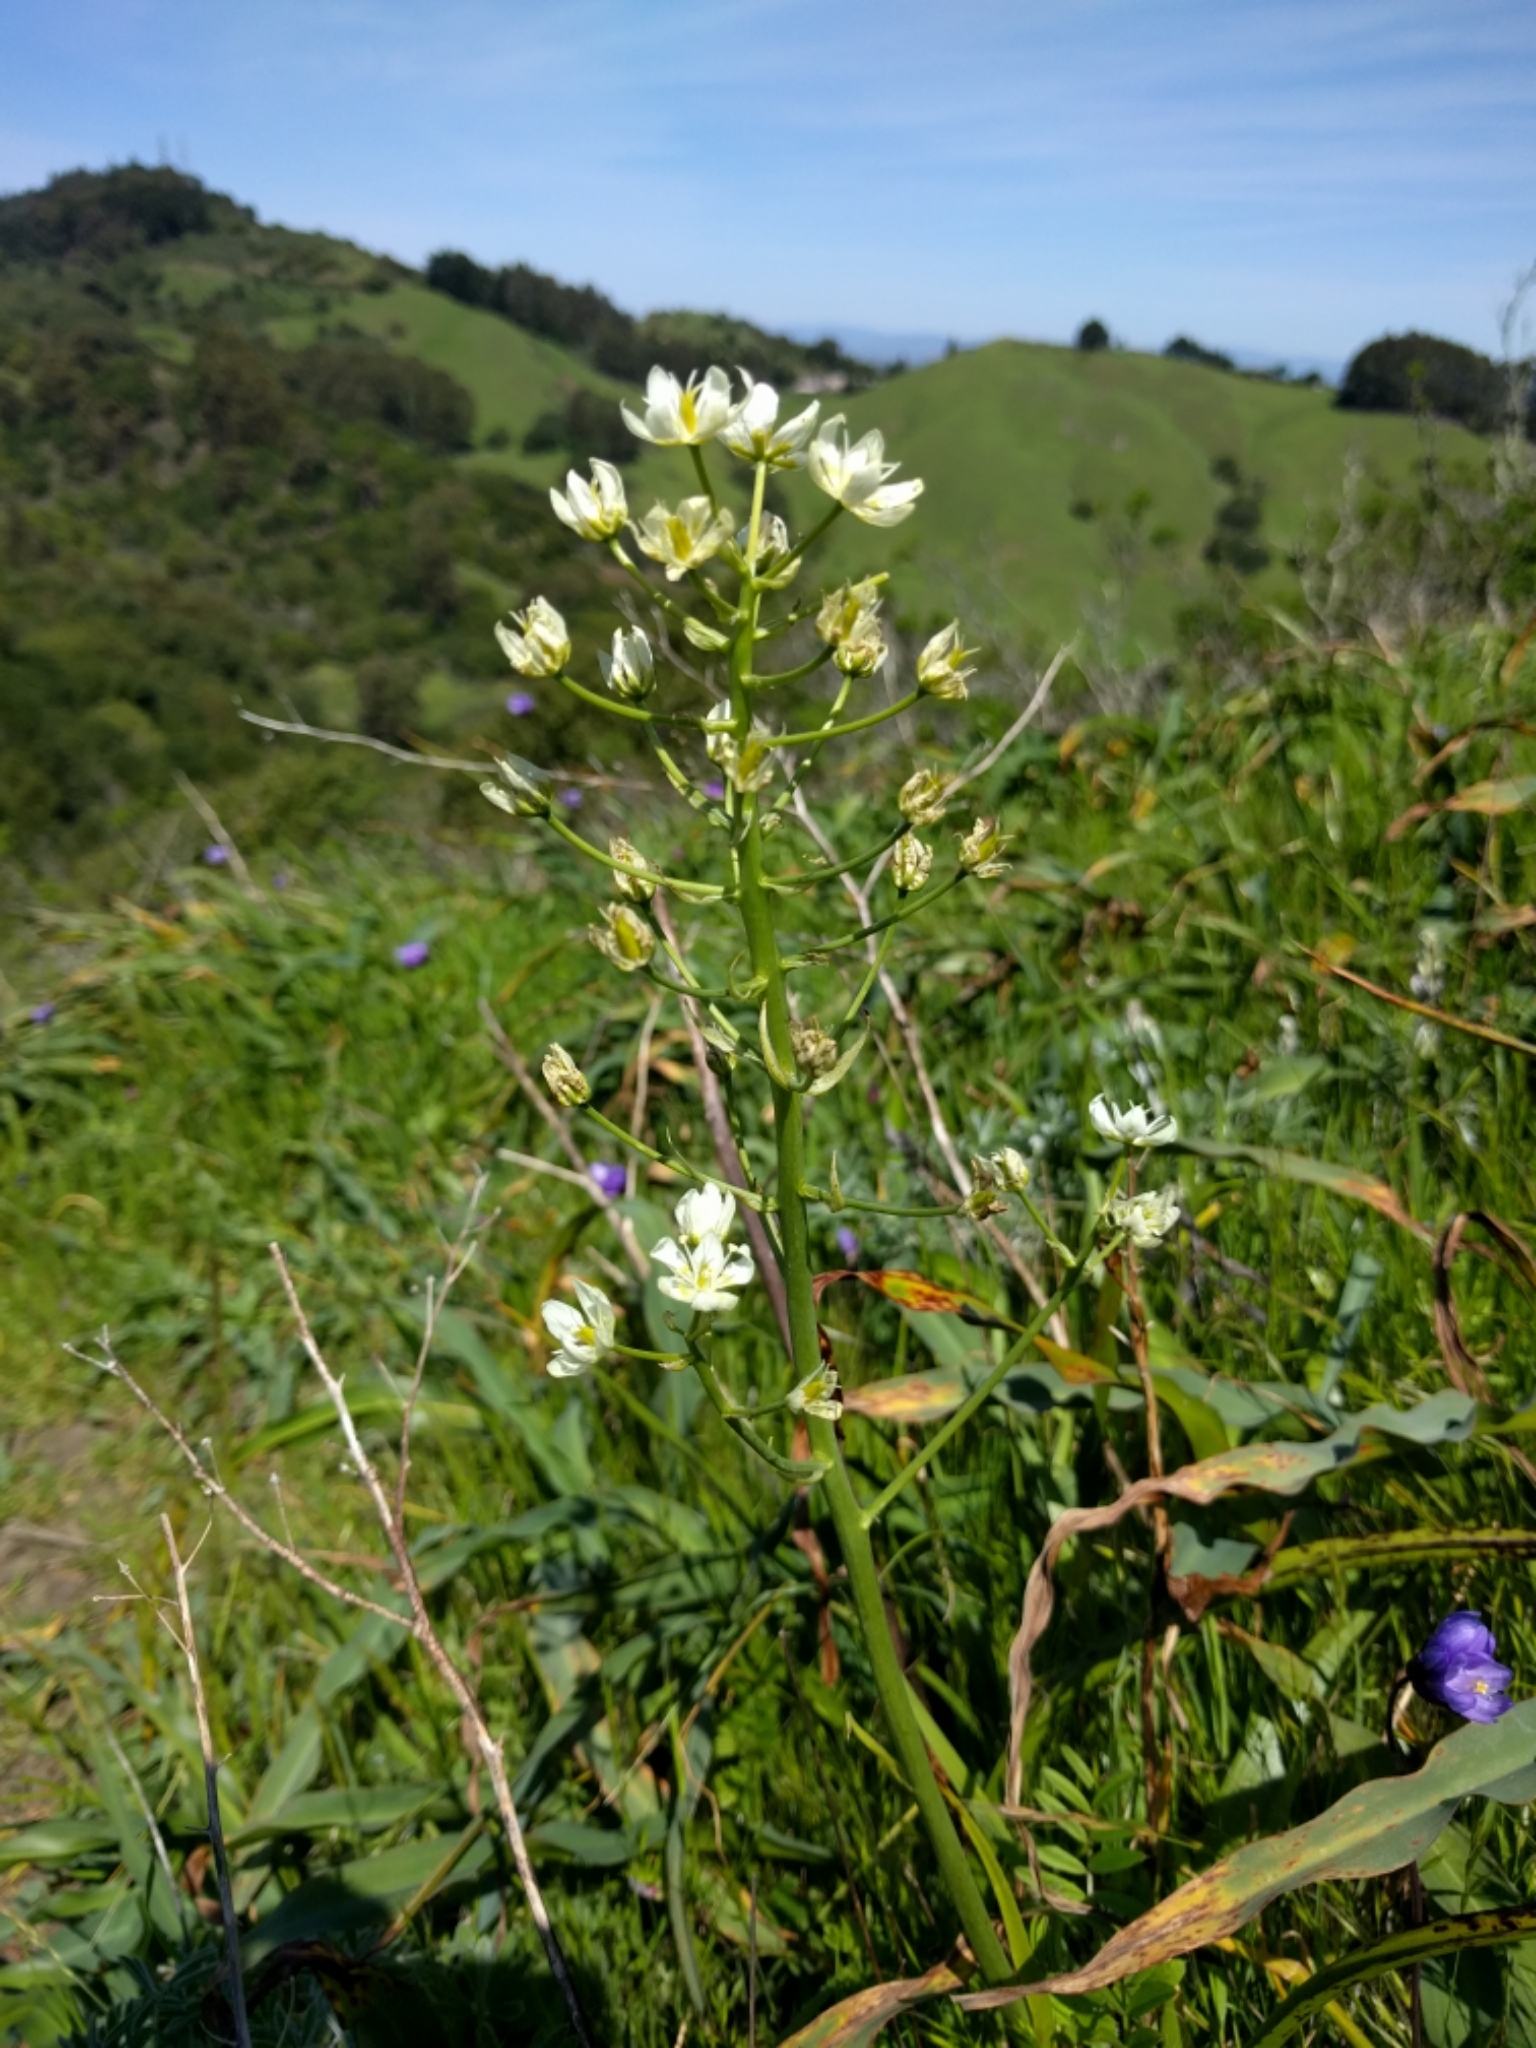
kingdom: Plantae
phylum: Tracheophyta
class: Liliopsida
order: Liliales
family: Melanthiaceae
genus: Toxicoscordion
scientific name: Toxicoscordion fremontii
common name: Fremont's death camas
